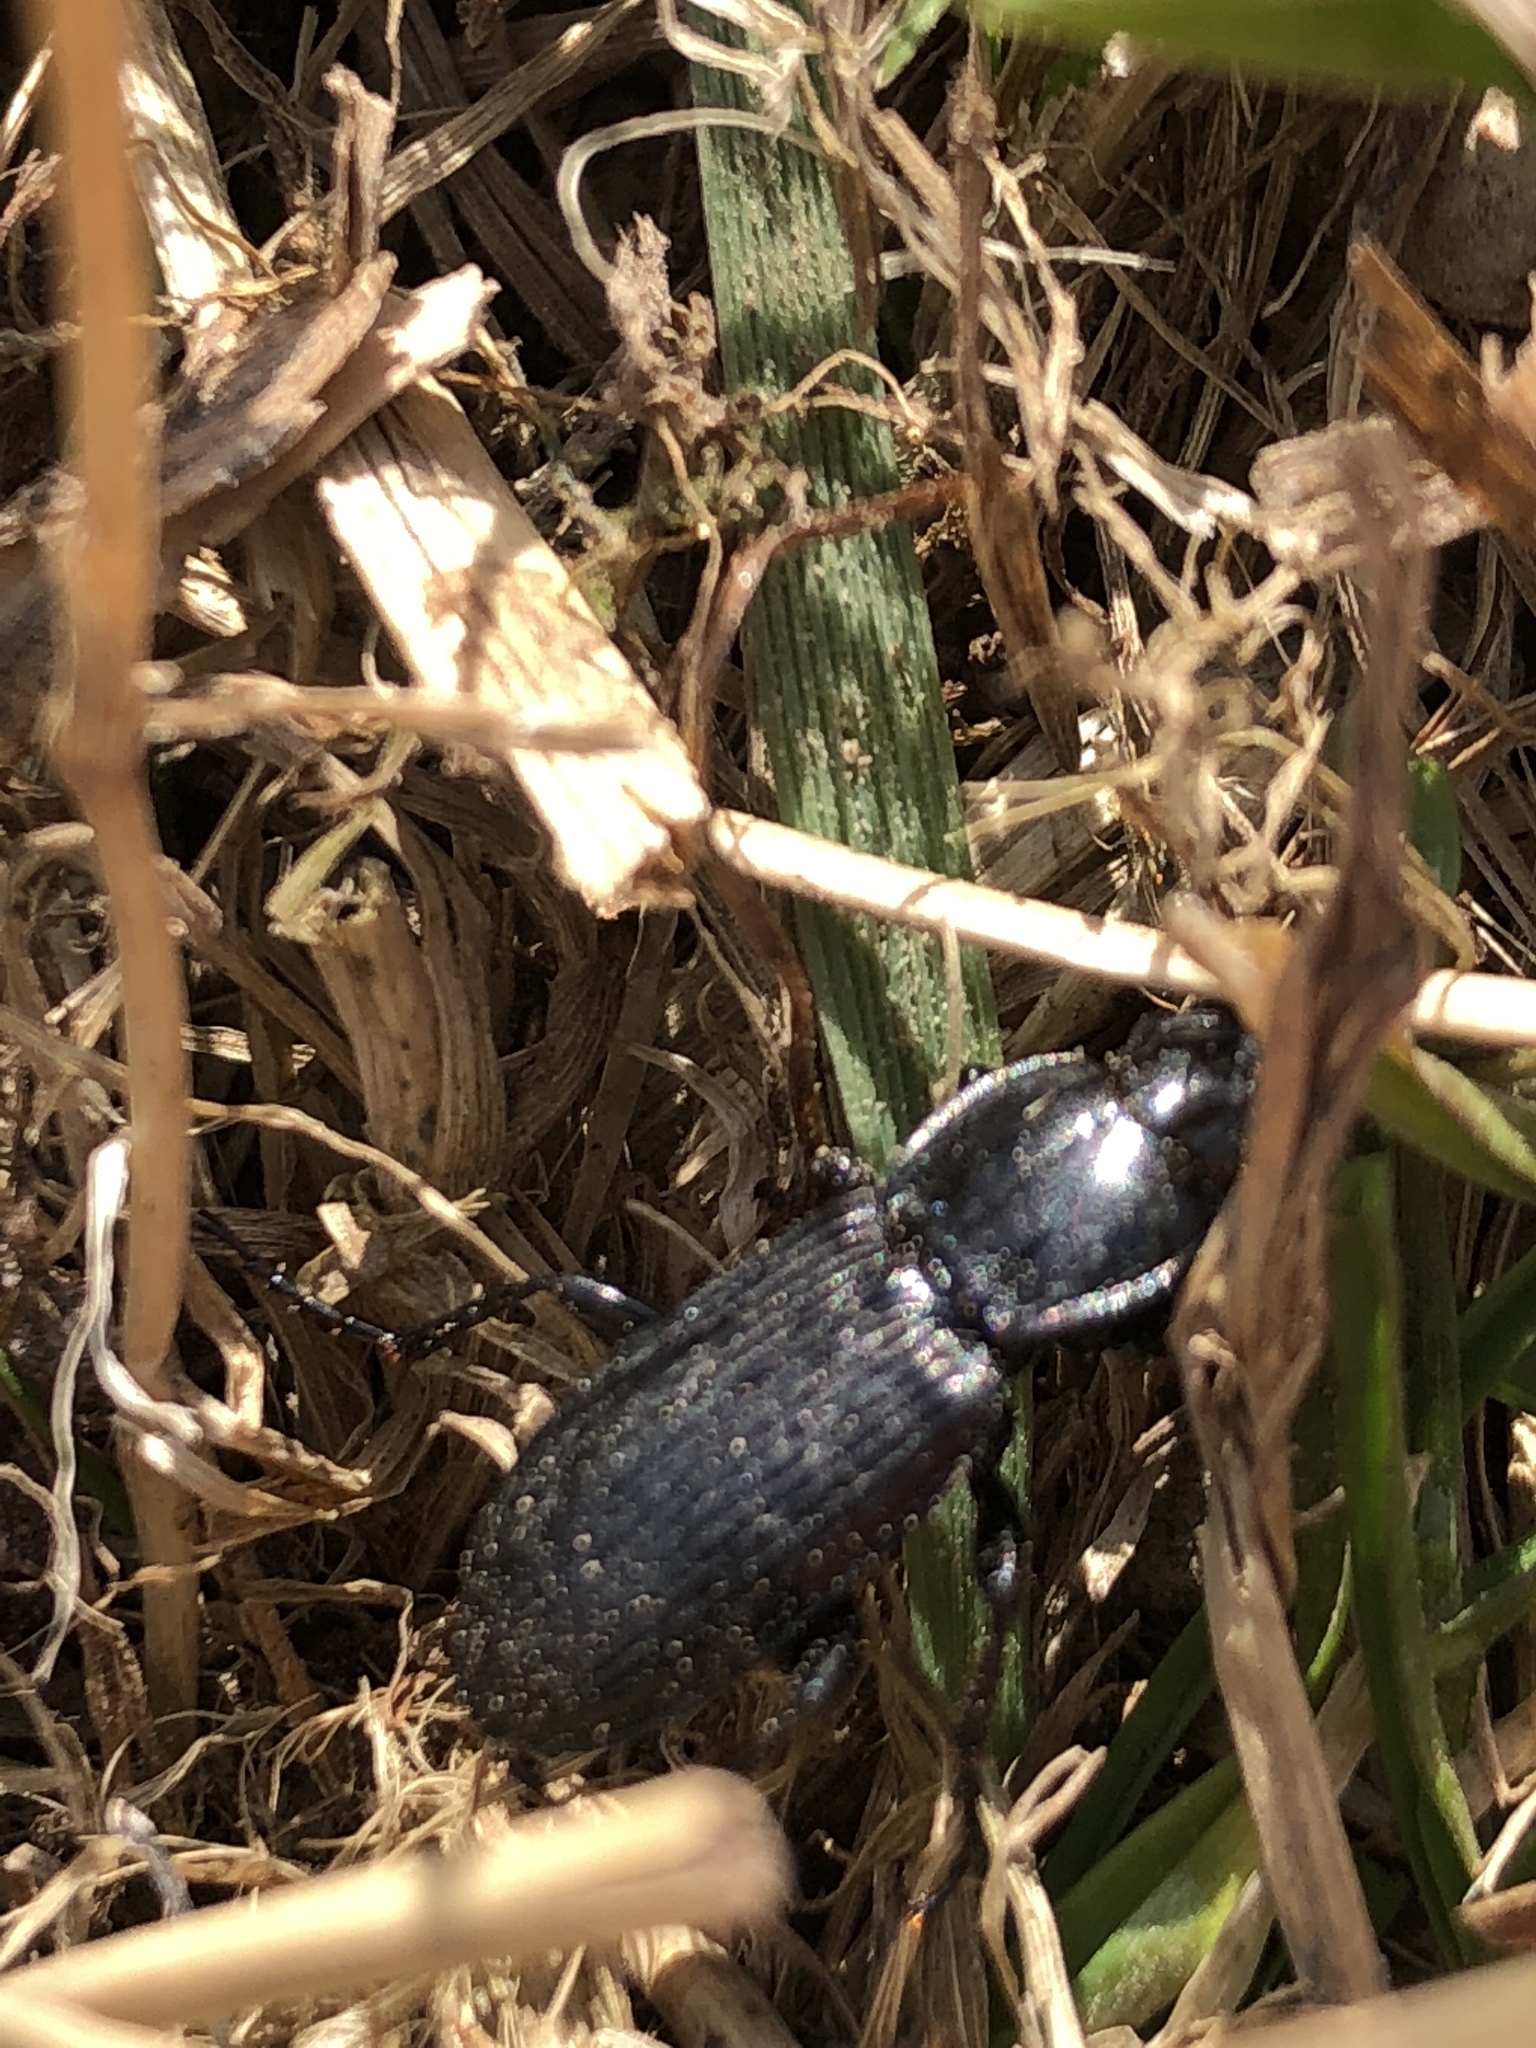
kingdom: Animalia
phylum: Arthropoda
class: Insecta
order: Coleoptera
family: Carabidae
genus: Pterostichus
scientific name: Pterostichus melanarius
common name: European dark harp ground beetle
